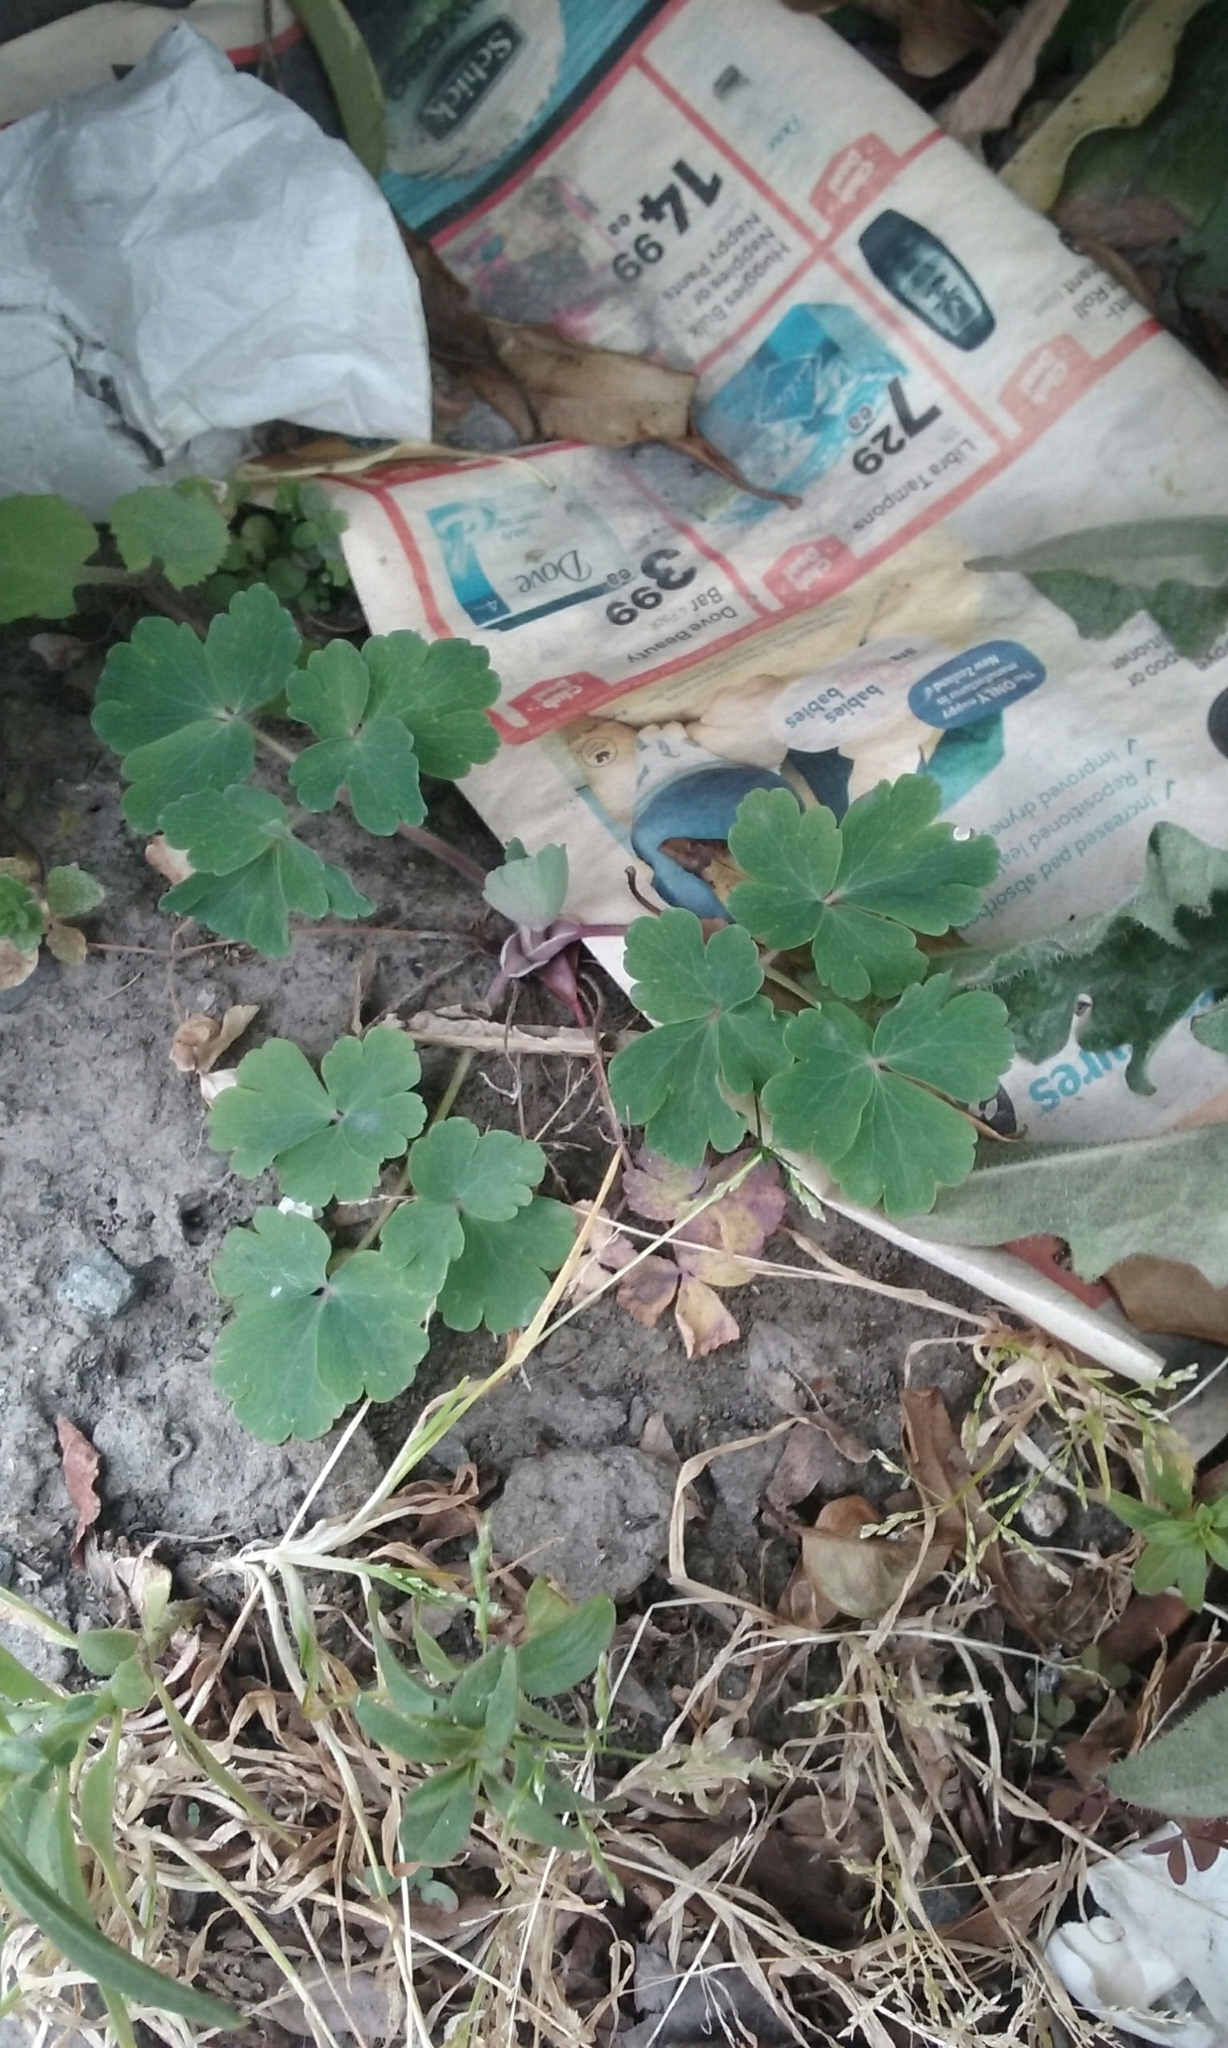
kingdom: Plantae
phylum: Tracheophyta
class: Magnoliopsida
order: Ranunculales
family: Ranunculaceae
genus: Aquilegia
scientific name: Aquilegia vulgaris
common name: Columbine
